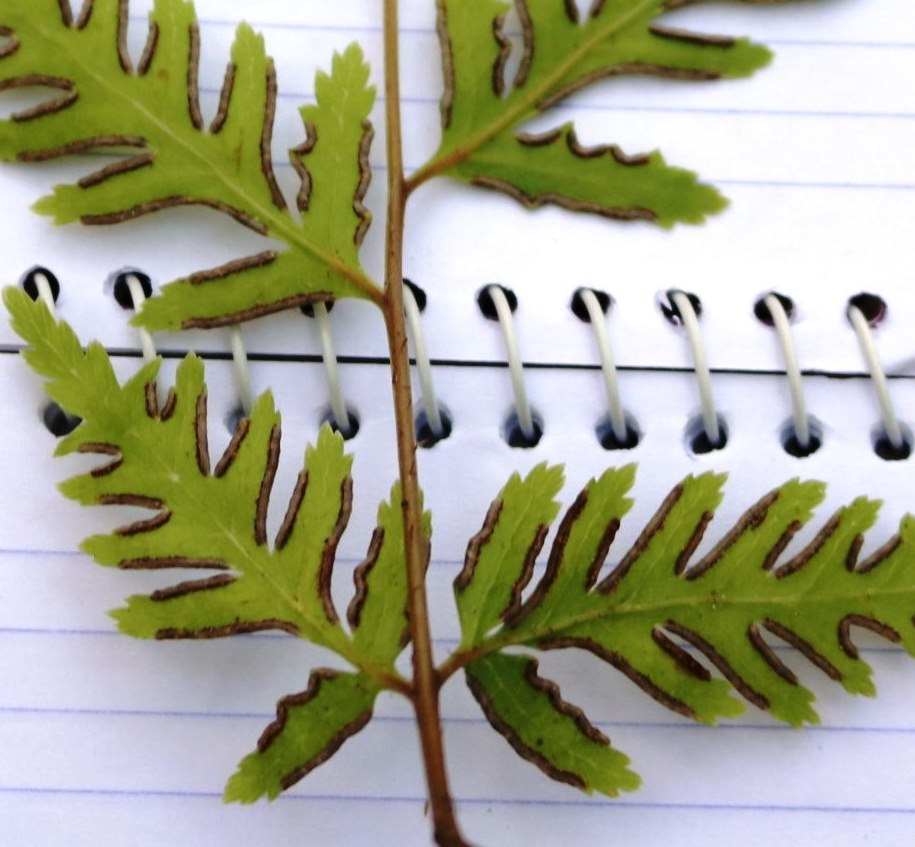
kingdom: Plantae
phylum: Tracheophyta
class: Polypodiopsida
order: Polypodiales
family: Pteridaceae
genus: Pteris
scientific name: Pteris macilenta
